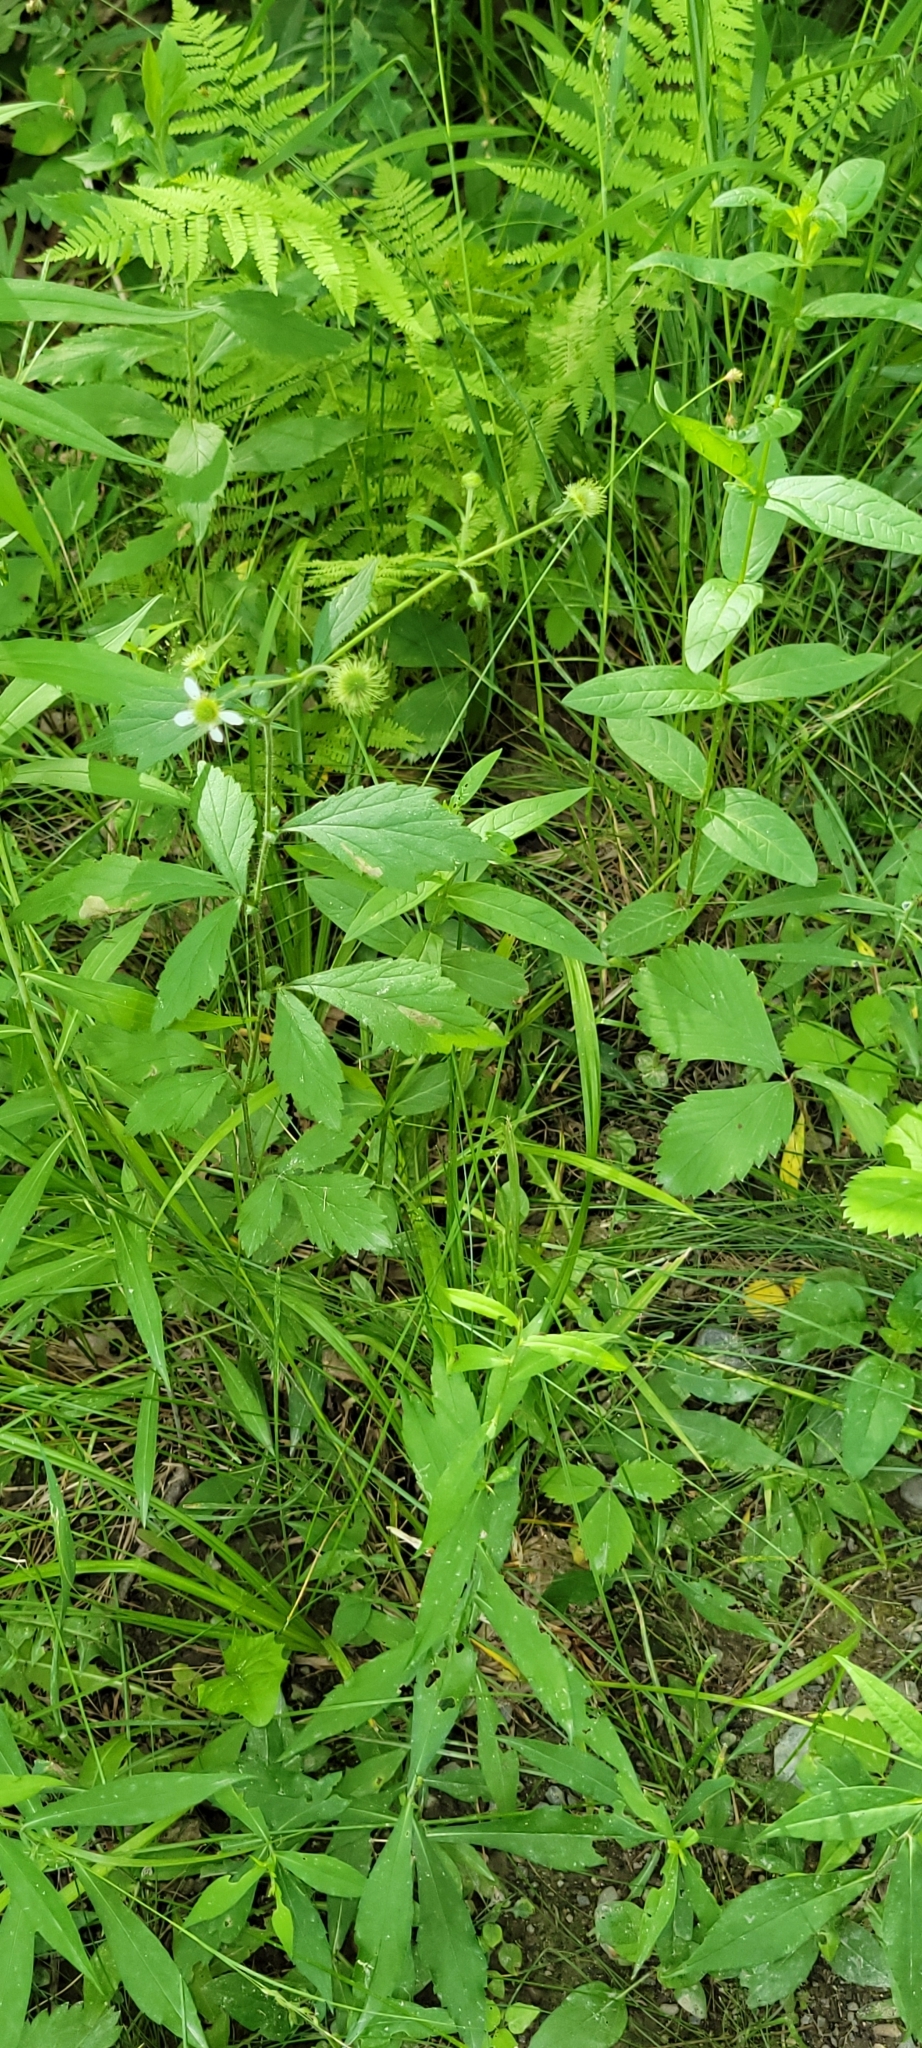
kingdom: Plantae
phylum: Tracheophyta
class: Magnoliopsida
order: Rosales
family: Rosaceae
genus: Geum
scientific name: Geum canadense
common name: White avens
